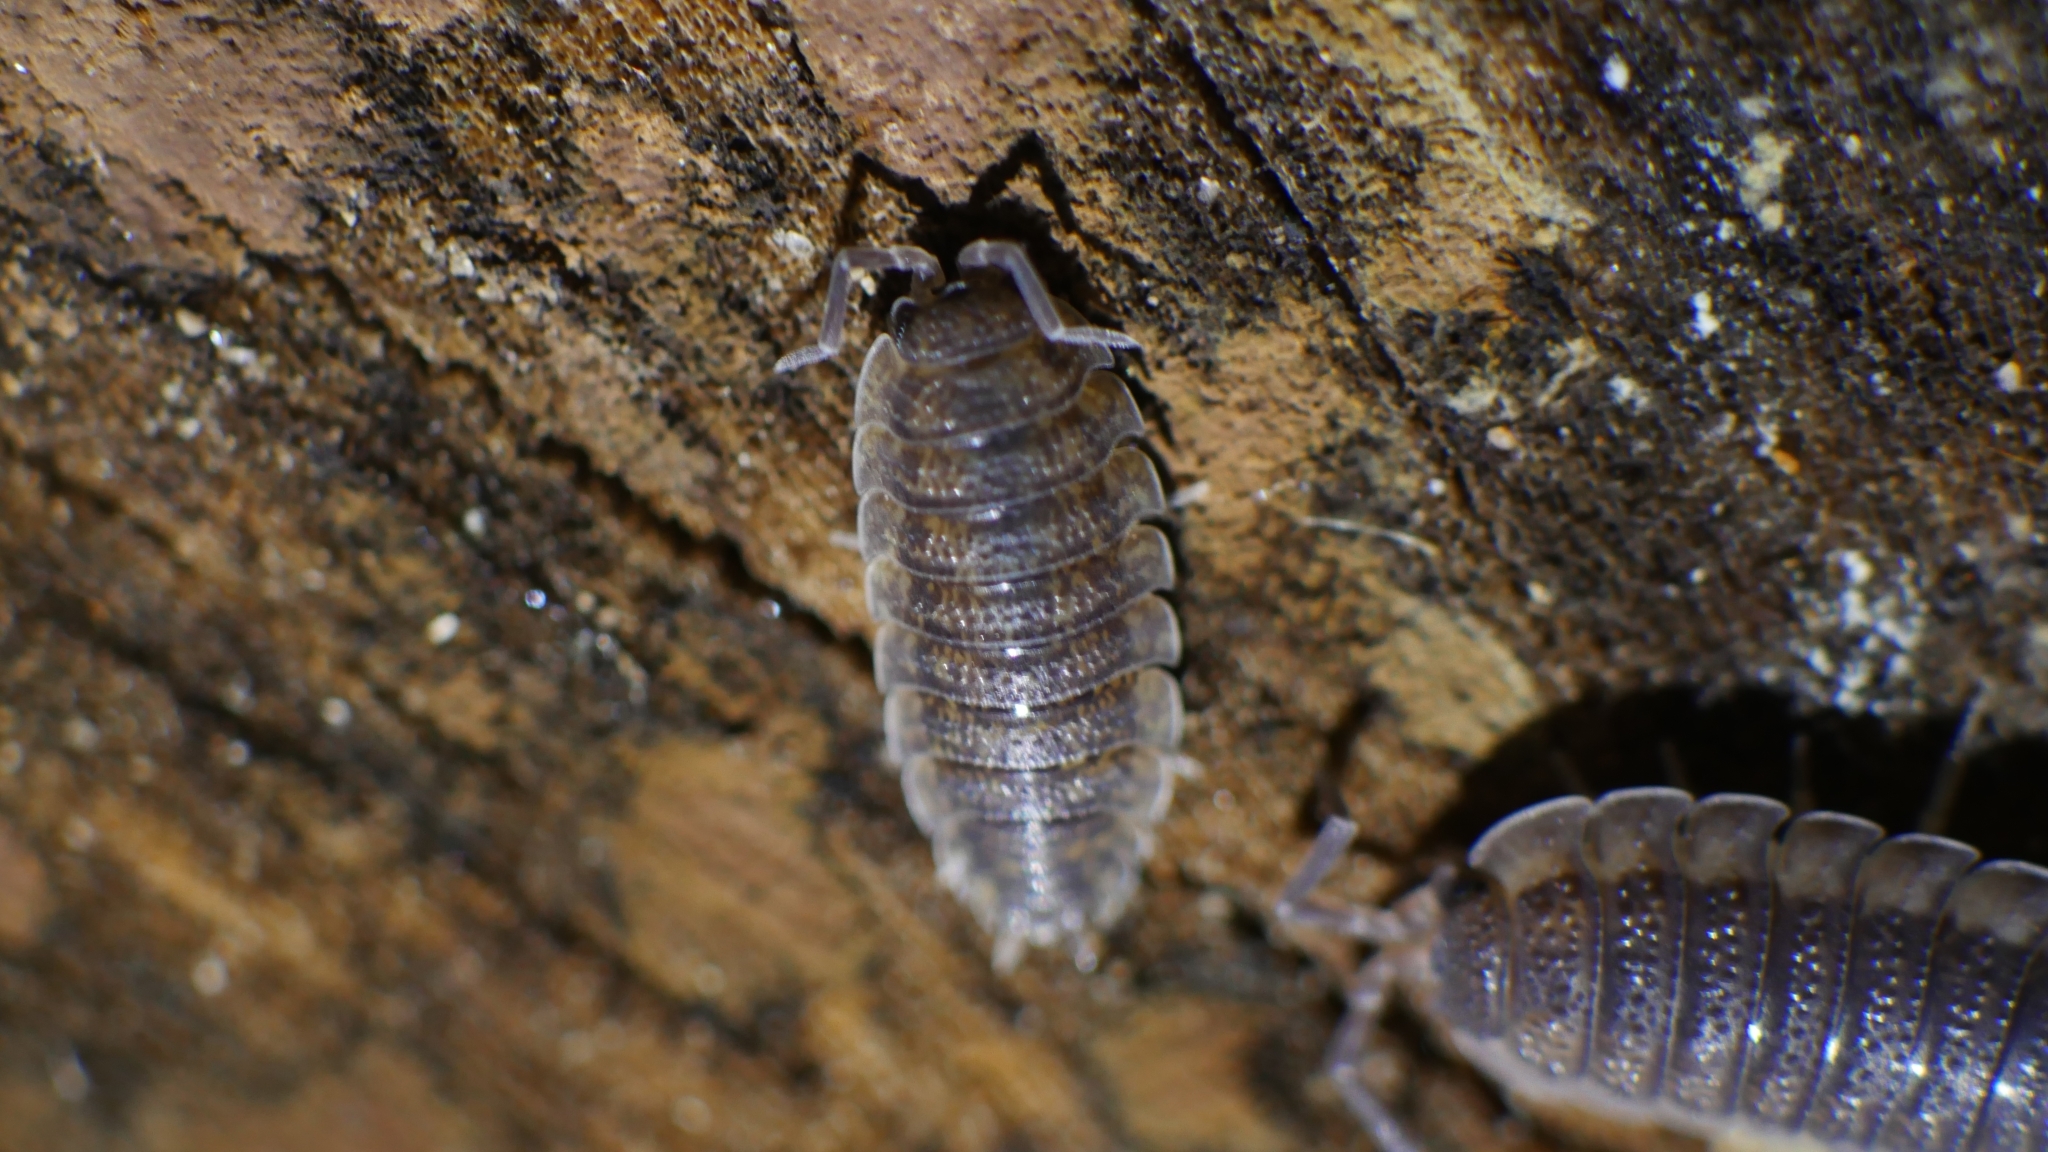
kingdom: Animalia
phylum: Arthropoda
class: Malacostraca
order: Isopoda
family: Porcellionidae
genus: Porcellio
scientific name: Porcellio scaber
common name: Common rough woodlouse
